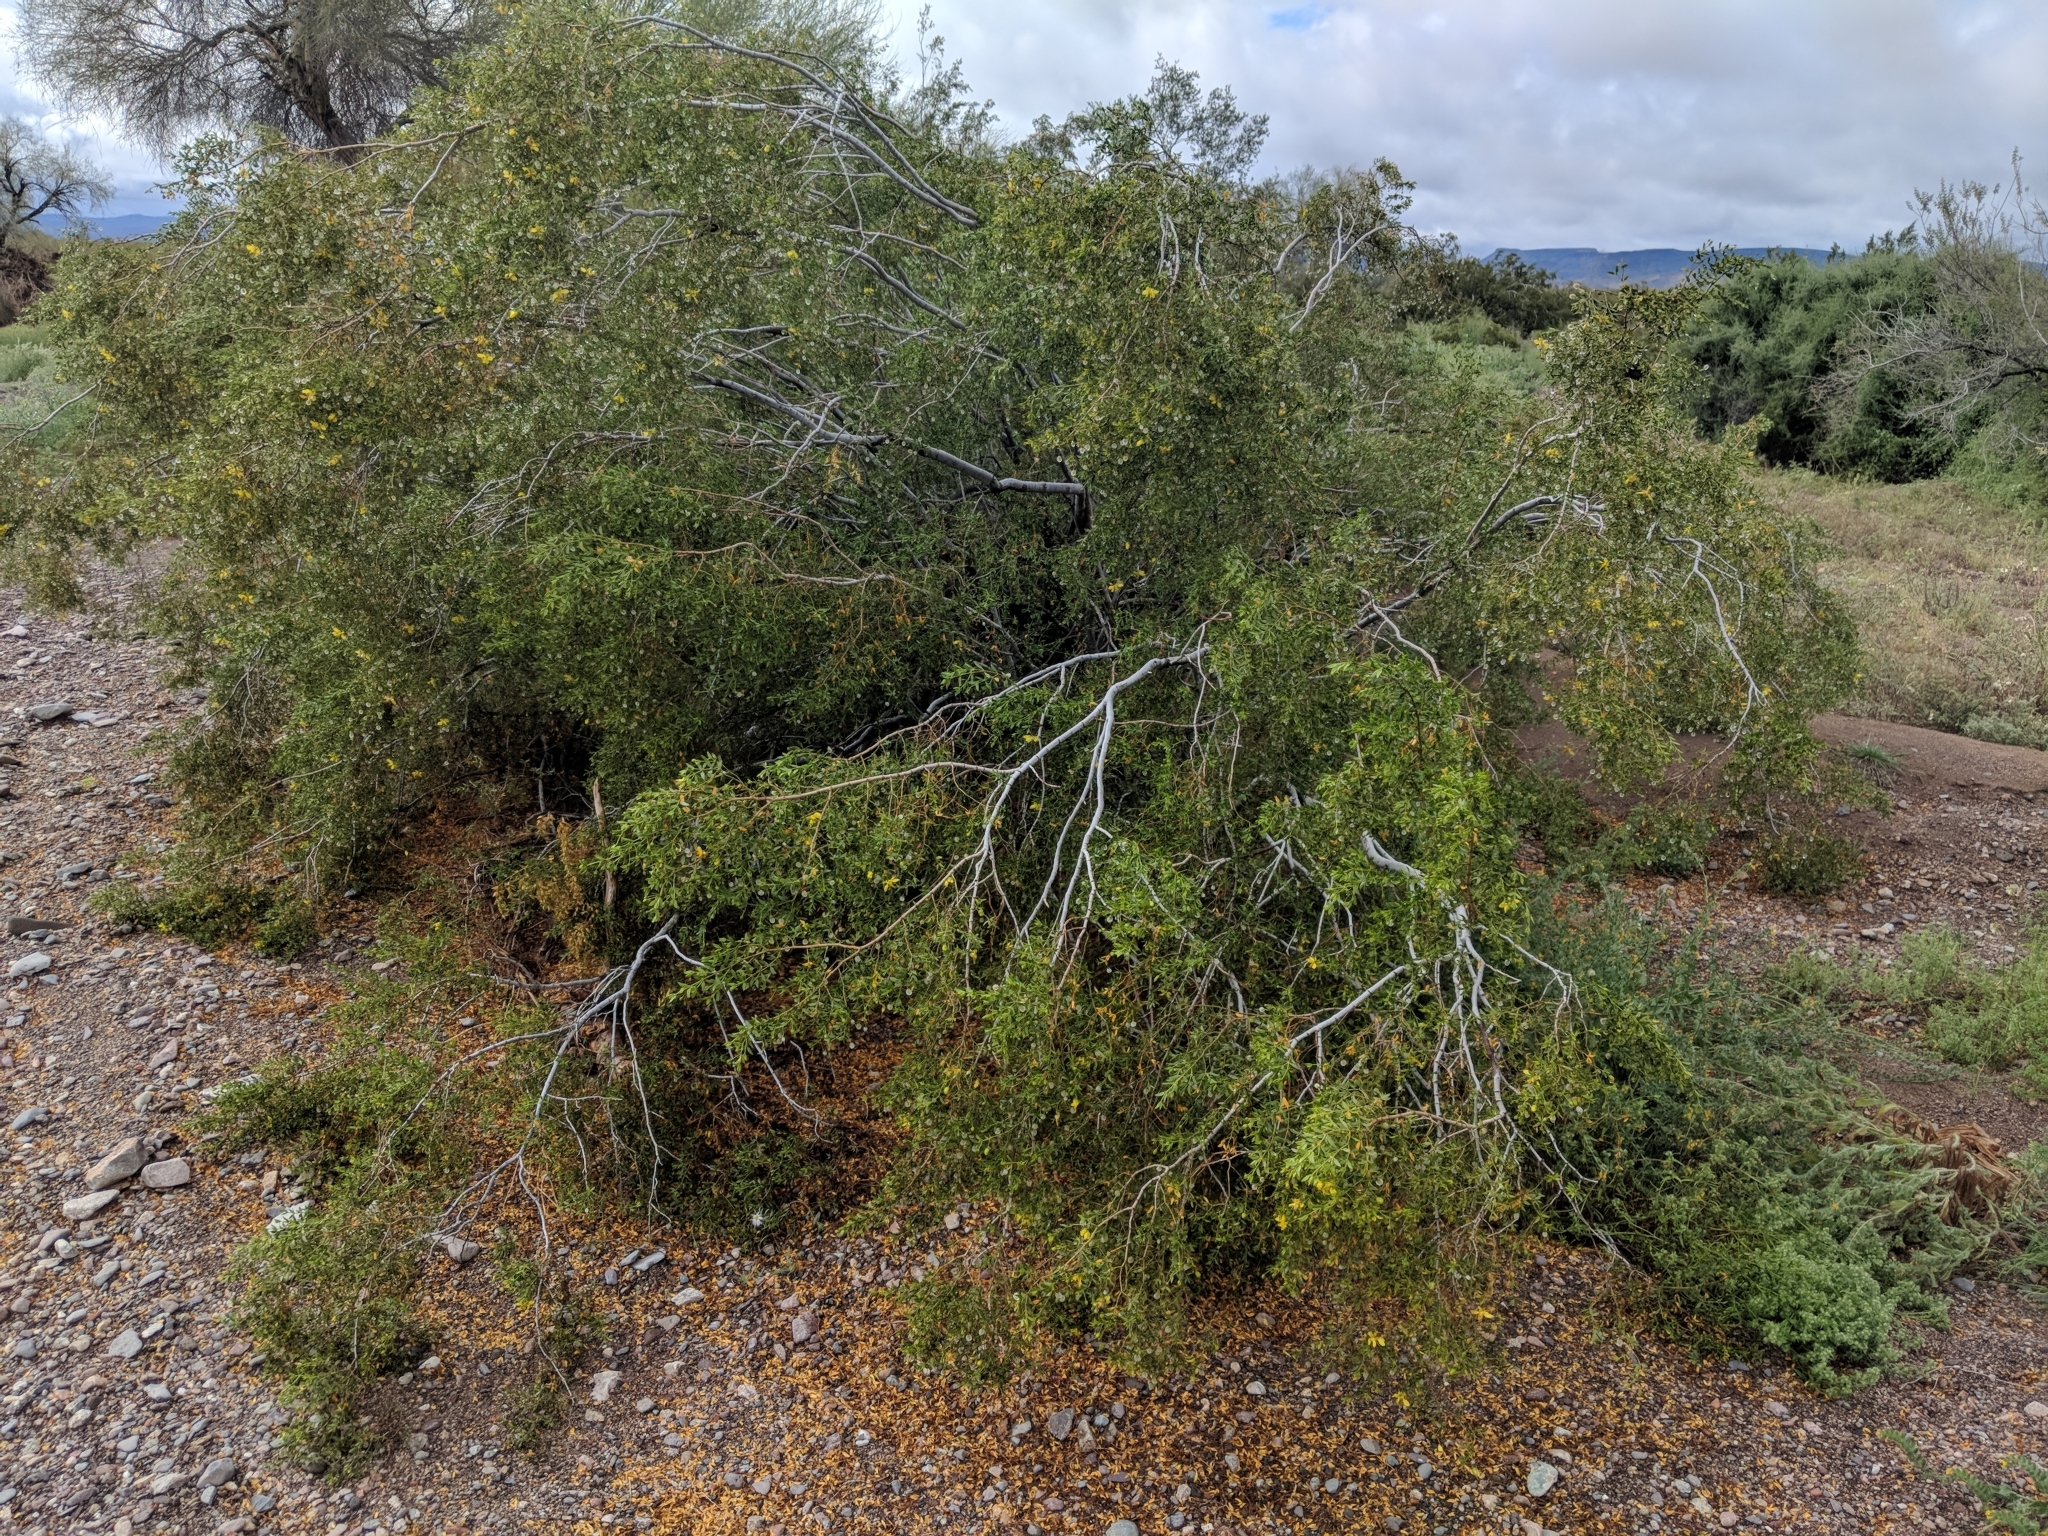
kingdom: Plantae
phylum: Tracheophyta
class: Magnoliopsida
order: Zygophyllales
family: Zygophyllaceae
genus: Larrea
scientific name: Larrea tridentata
